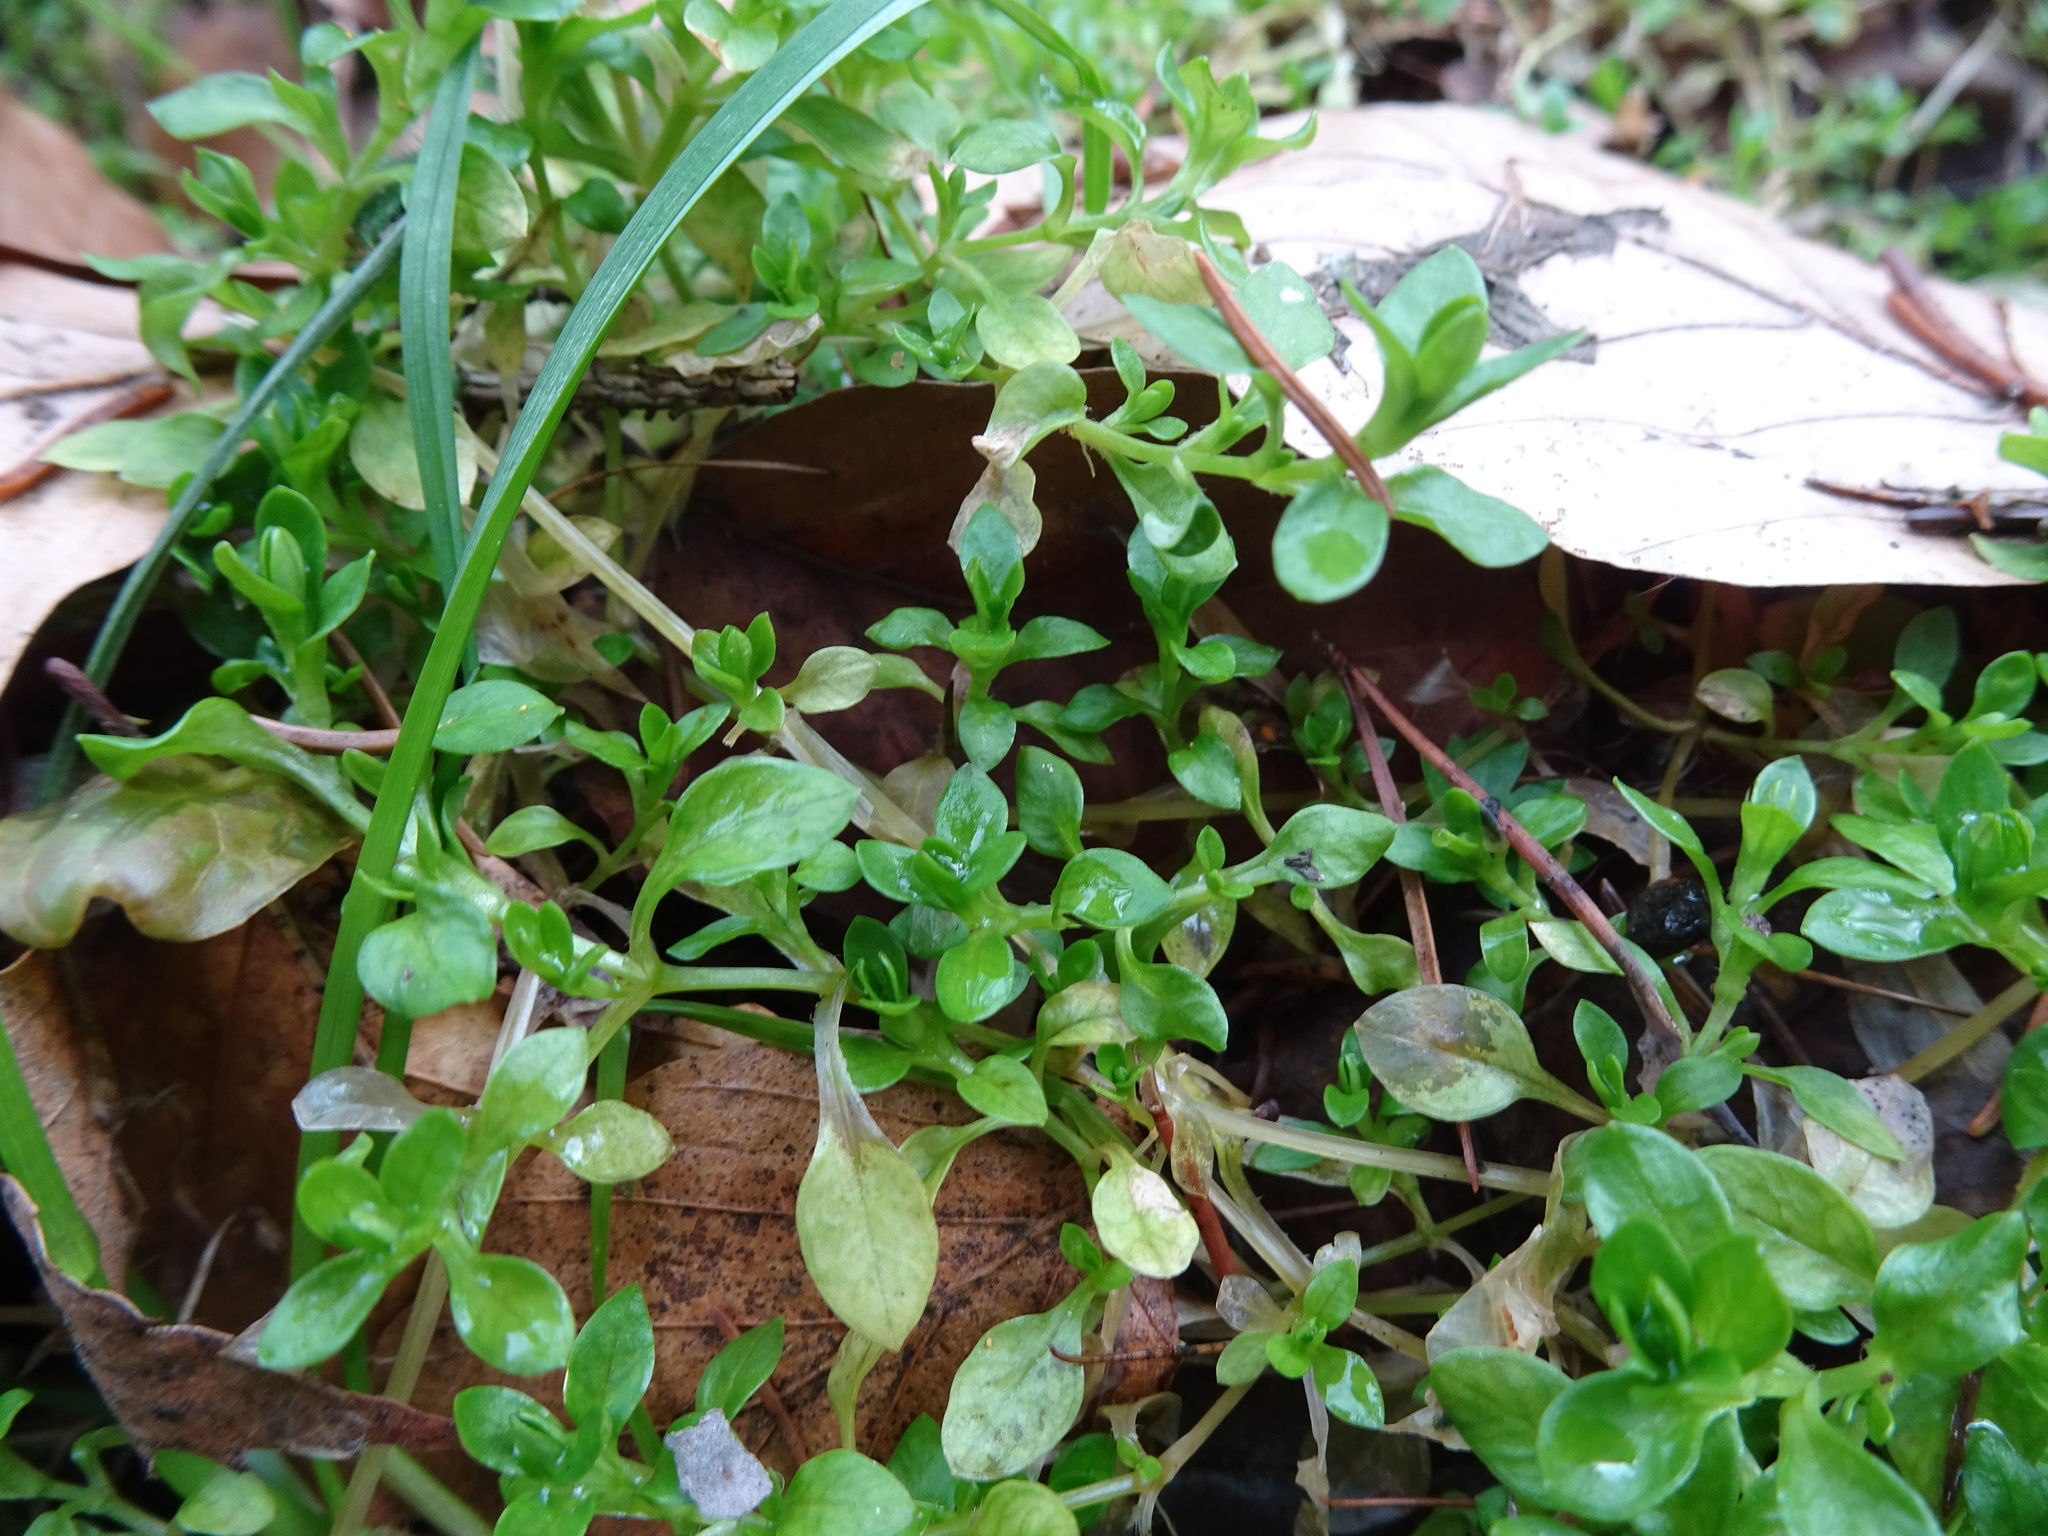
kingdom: Plantae
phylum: Tracheophyta
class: Magnoliopsida
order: Caryophyllales
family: Caryophyllaceae
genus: Stellaria
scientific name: Stellaria media
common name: Common chickweed
